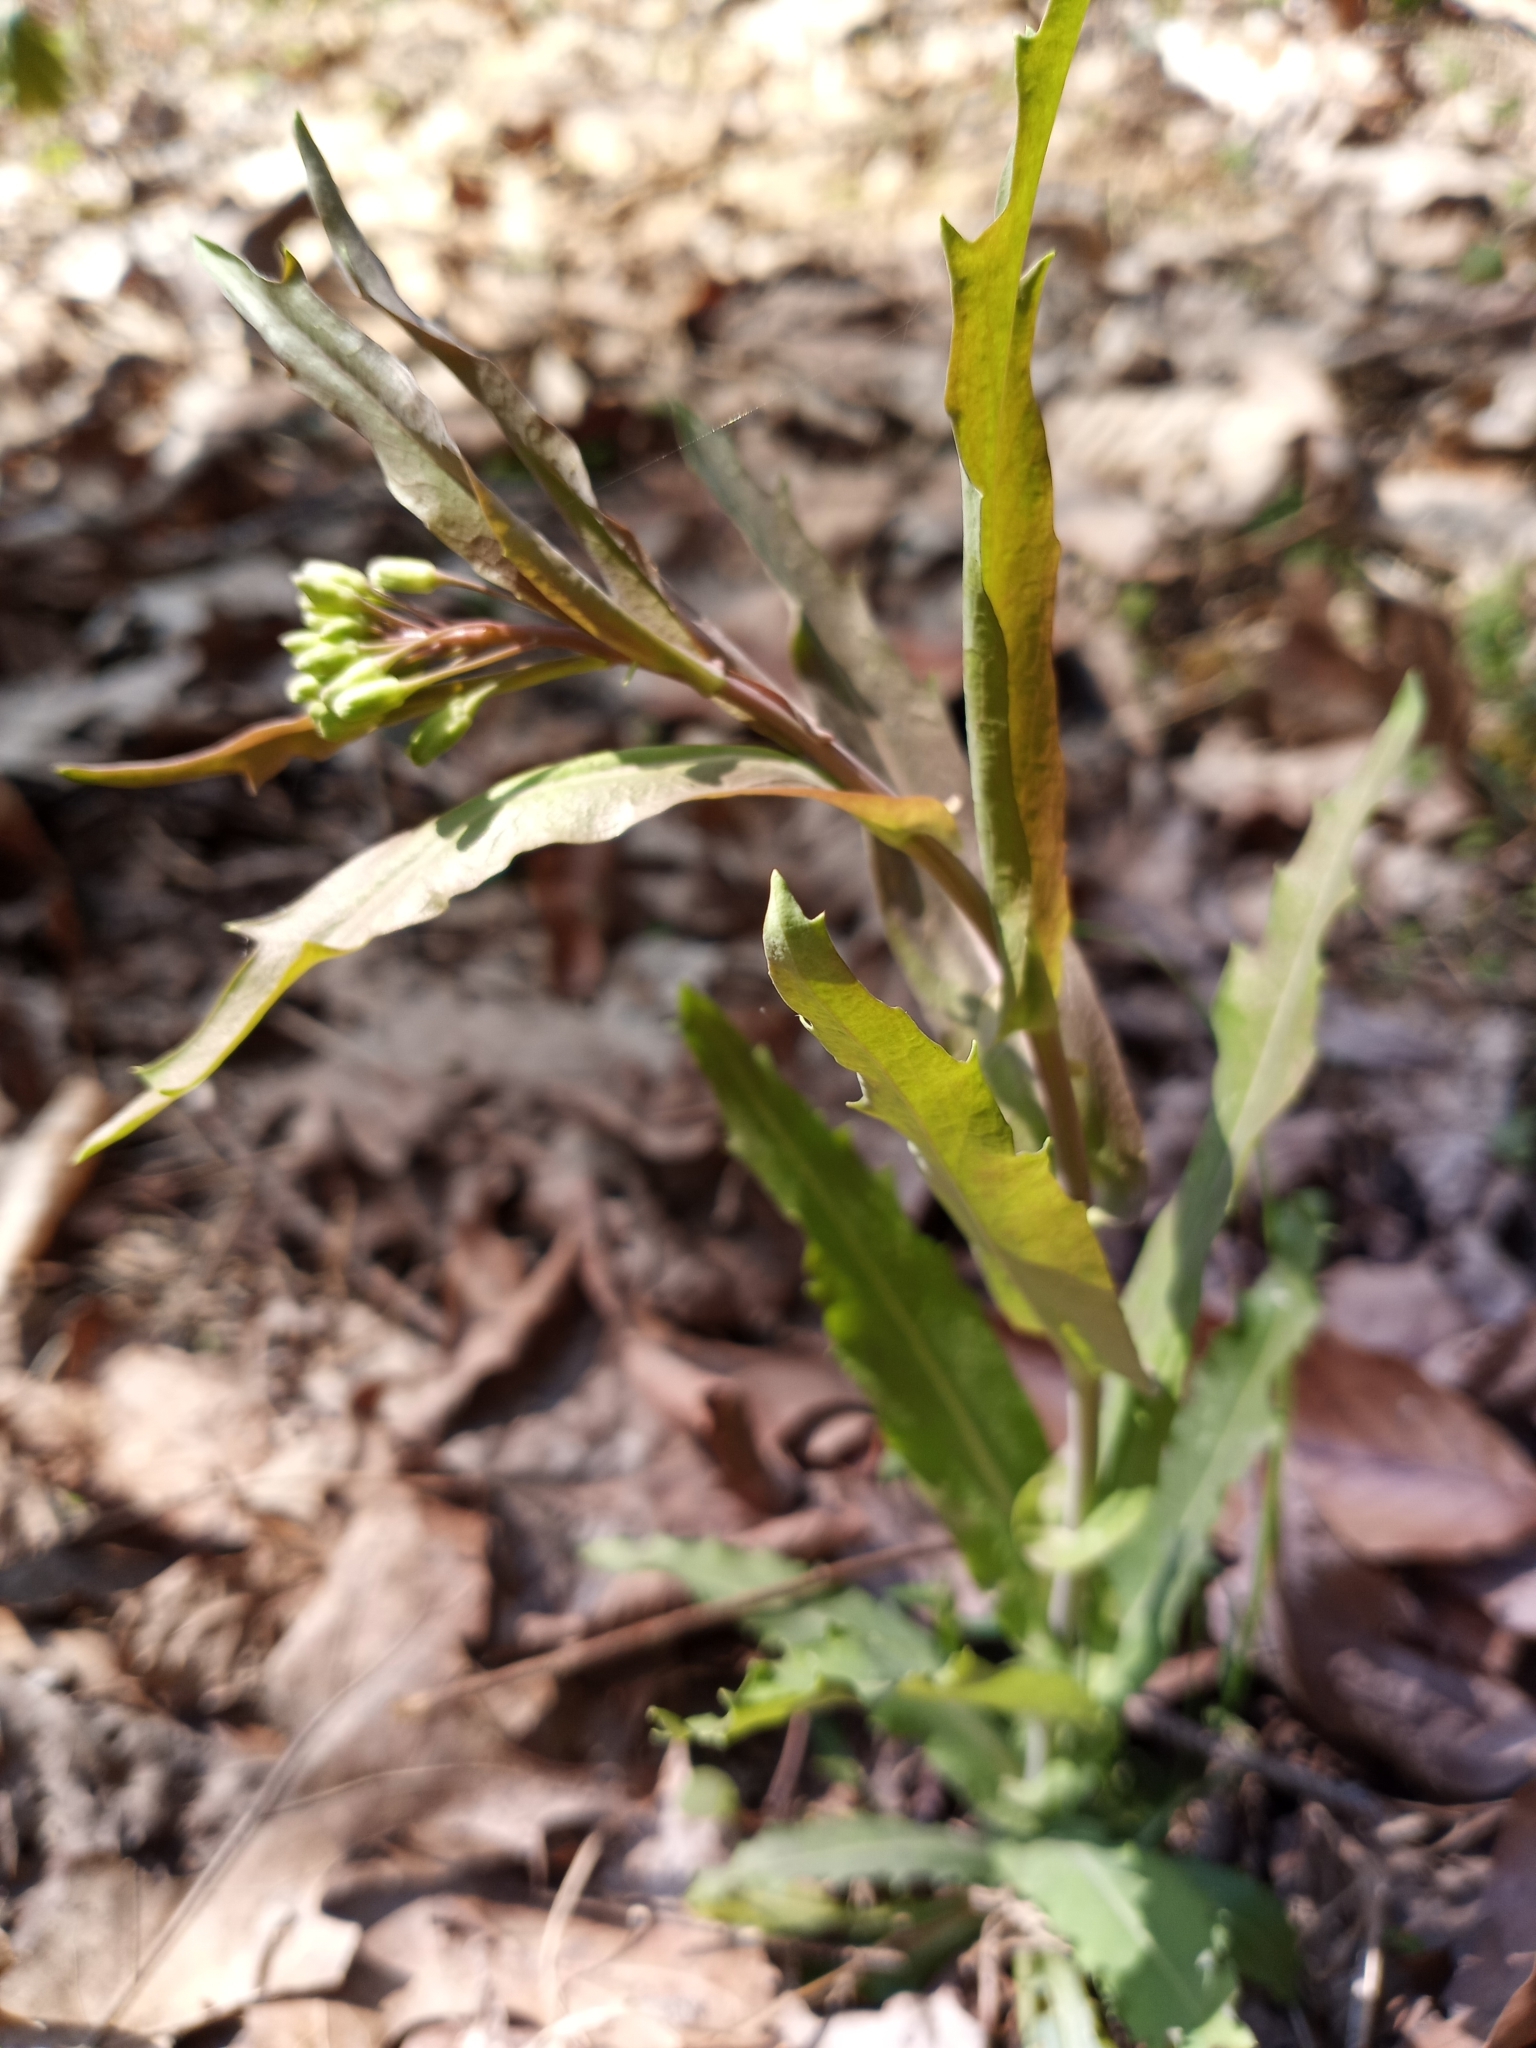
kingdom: Plantae
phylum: Tracheophyta
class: Magnoliopsida
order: Brassicales
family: Brassicaceae
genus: Borodinia
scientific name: Borodinia laevigata
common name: Smooth rockcress
